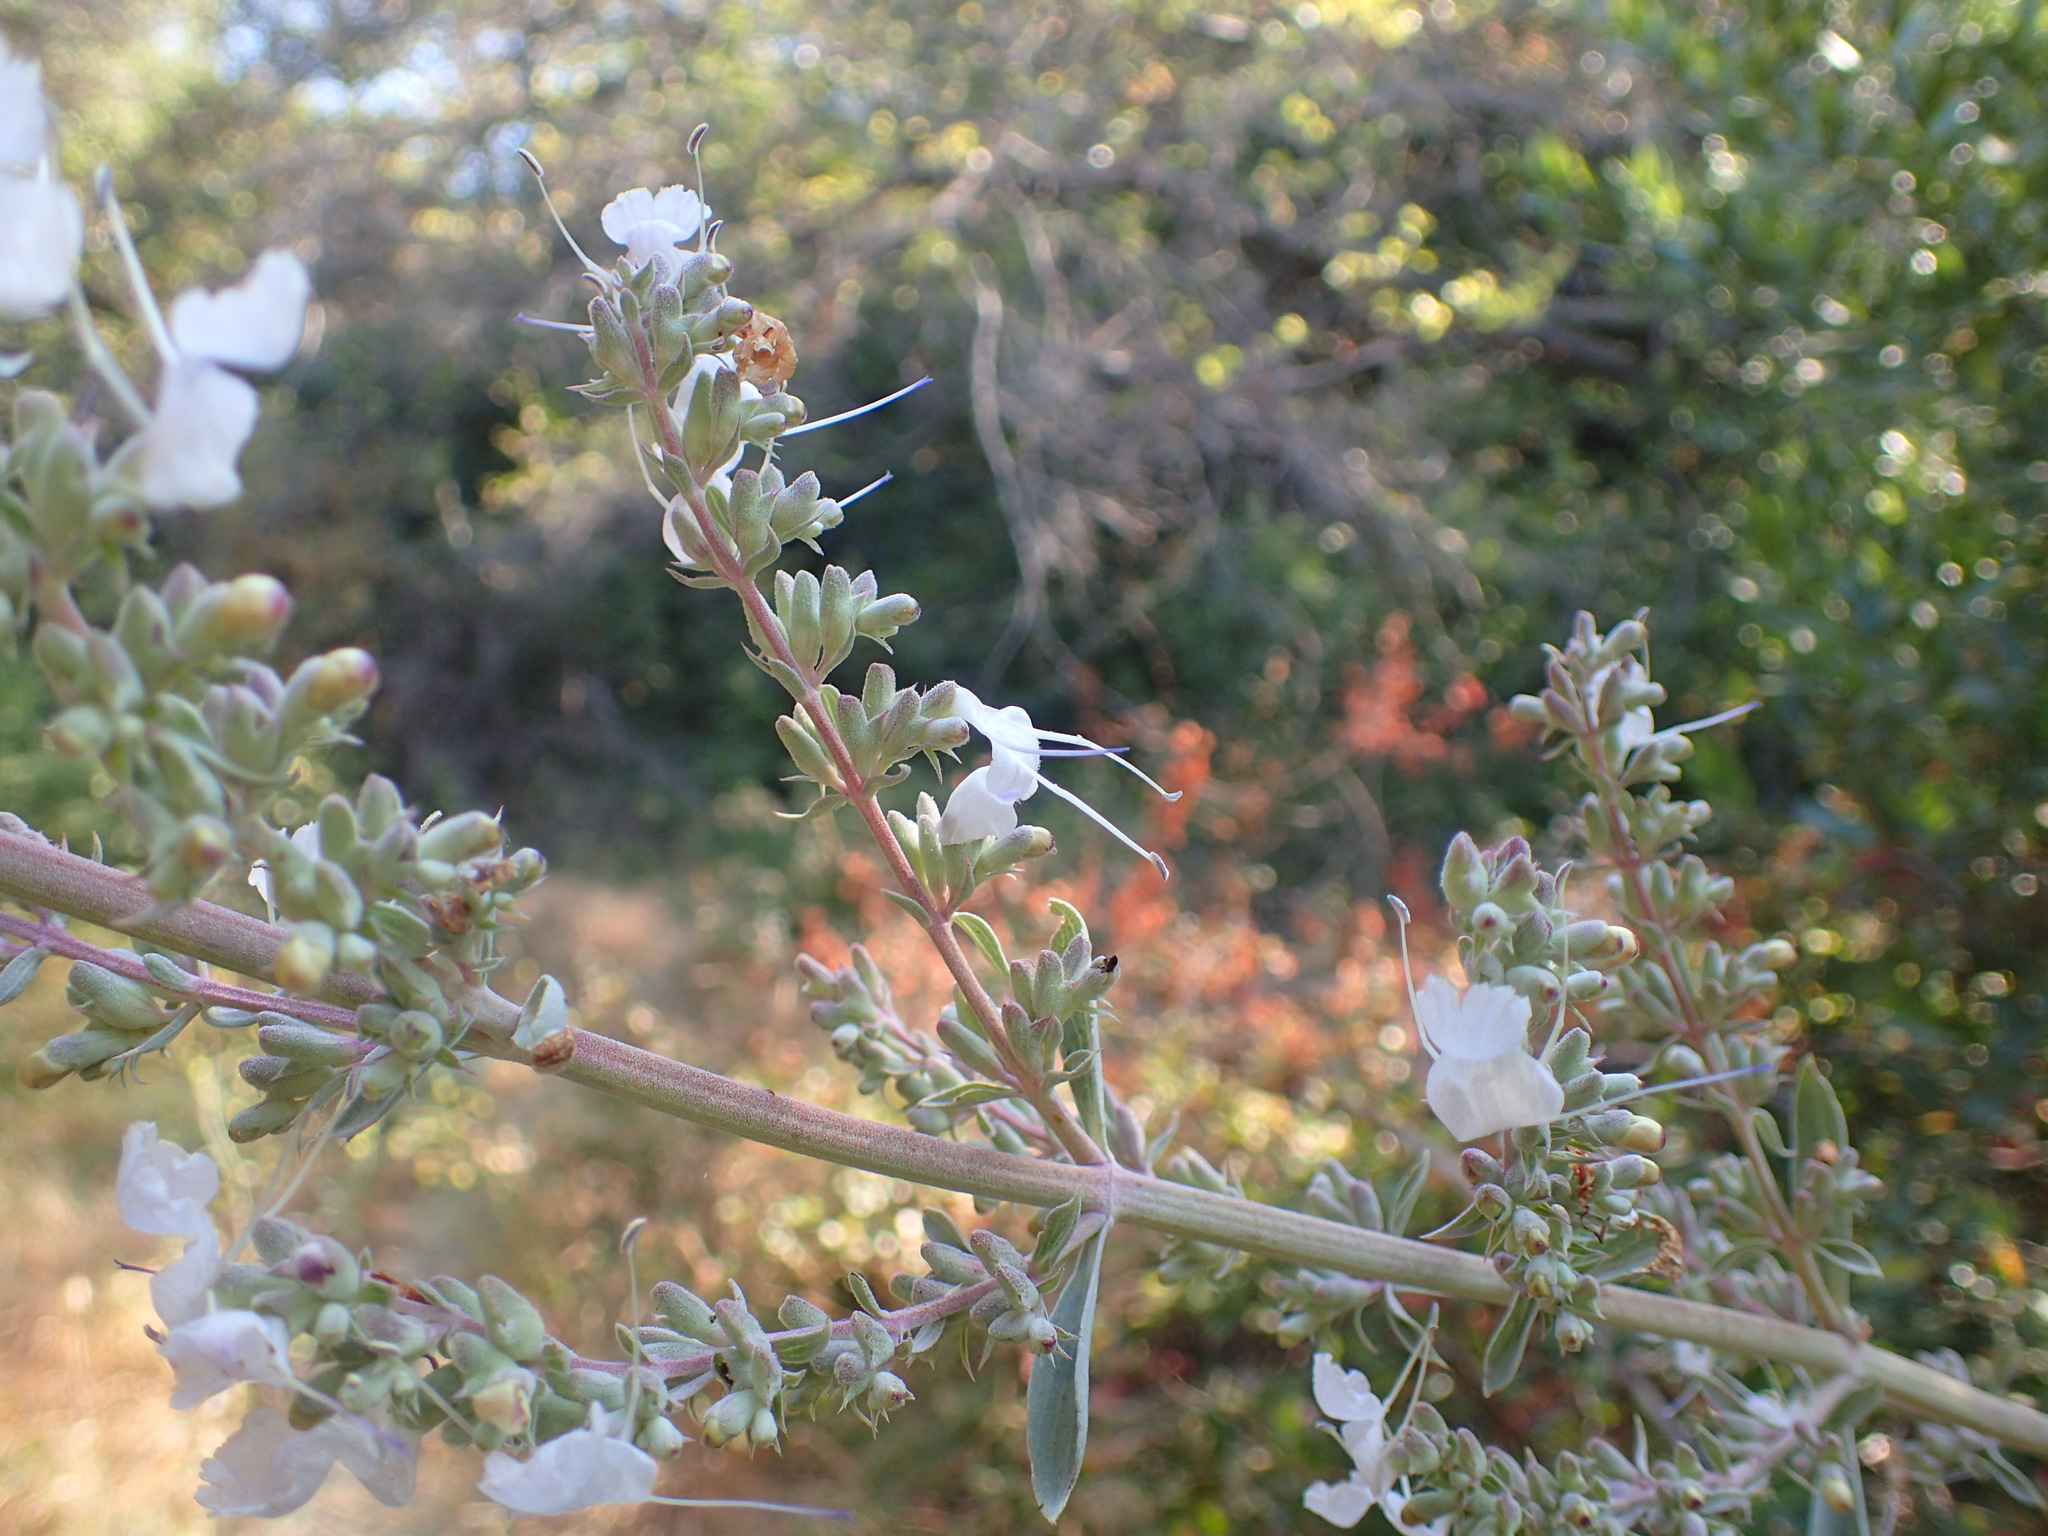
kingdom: Plantae
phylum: Tracheophyta
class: Magnoliopsida
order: Lamiales
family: Lamiaceae
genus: Salvia
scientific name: Salvia apiana
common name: White sage
